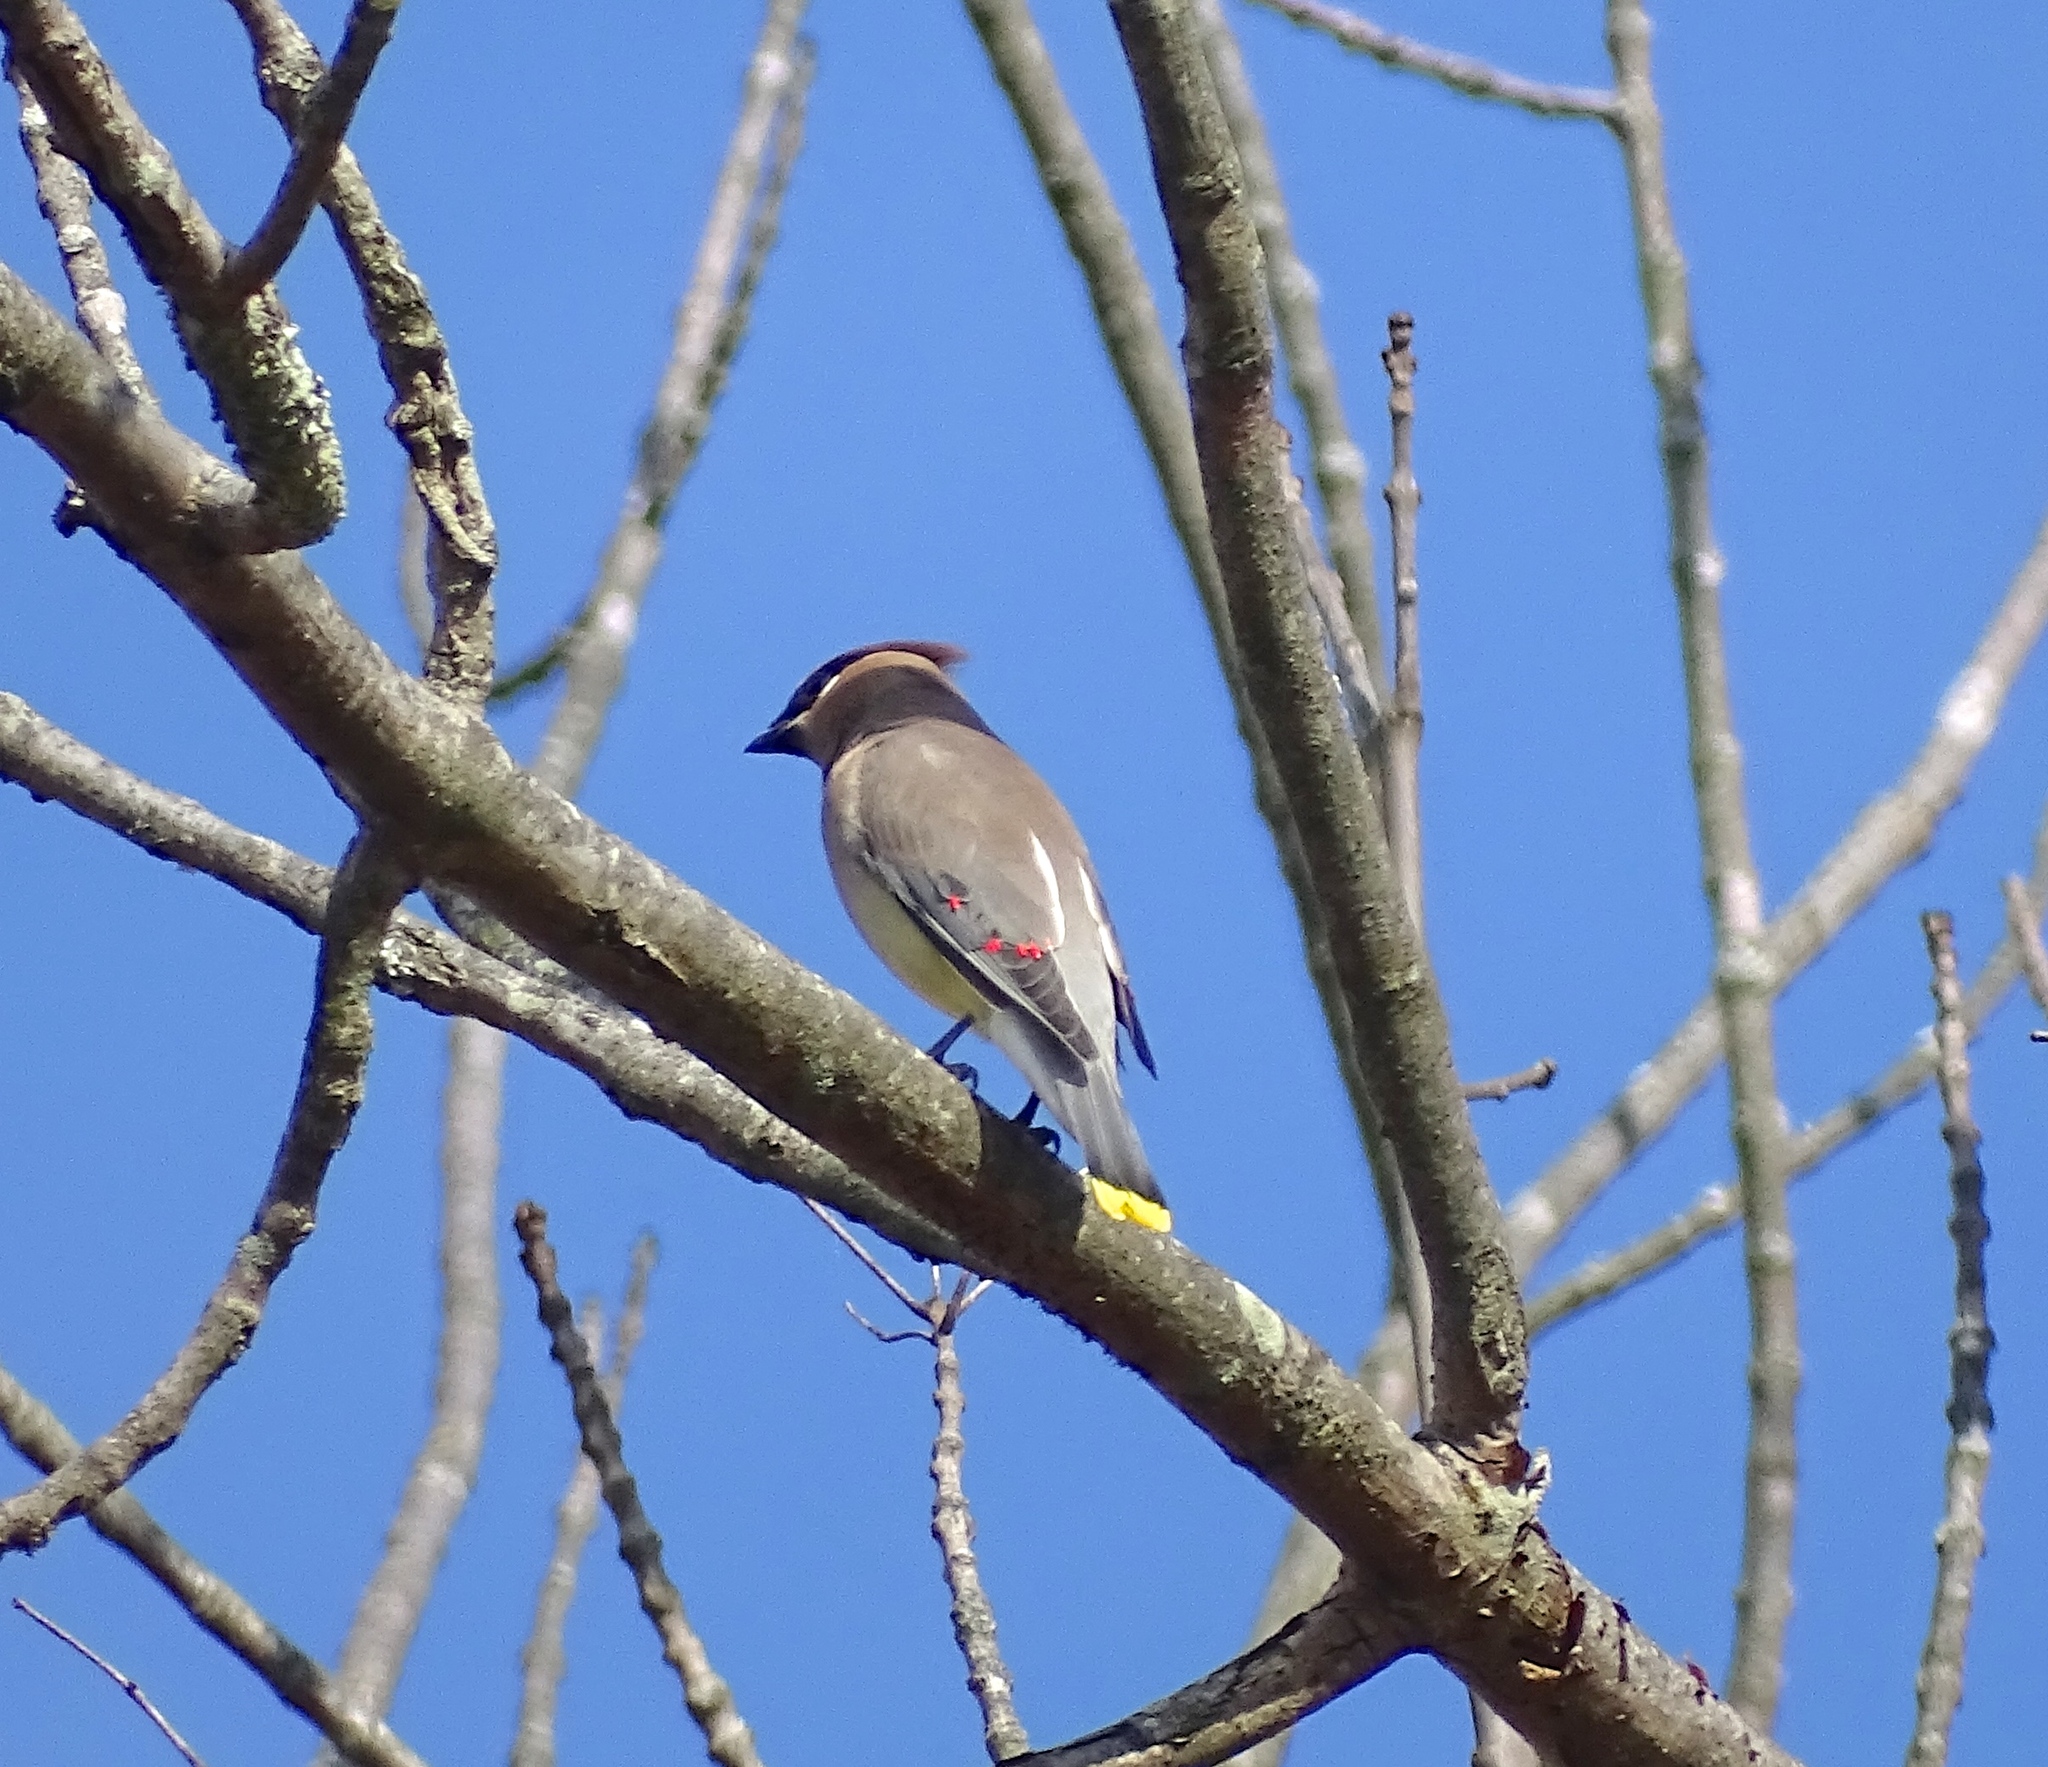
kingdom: Animalia
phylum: Chordata
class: Aves
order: Passeriformes
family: Bombycillidae
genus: Bombycilla
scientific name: Bombycilla cedrorum
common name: Cedar waxwing
